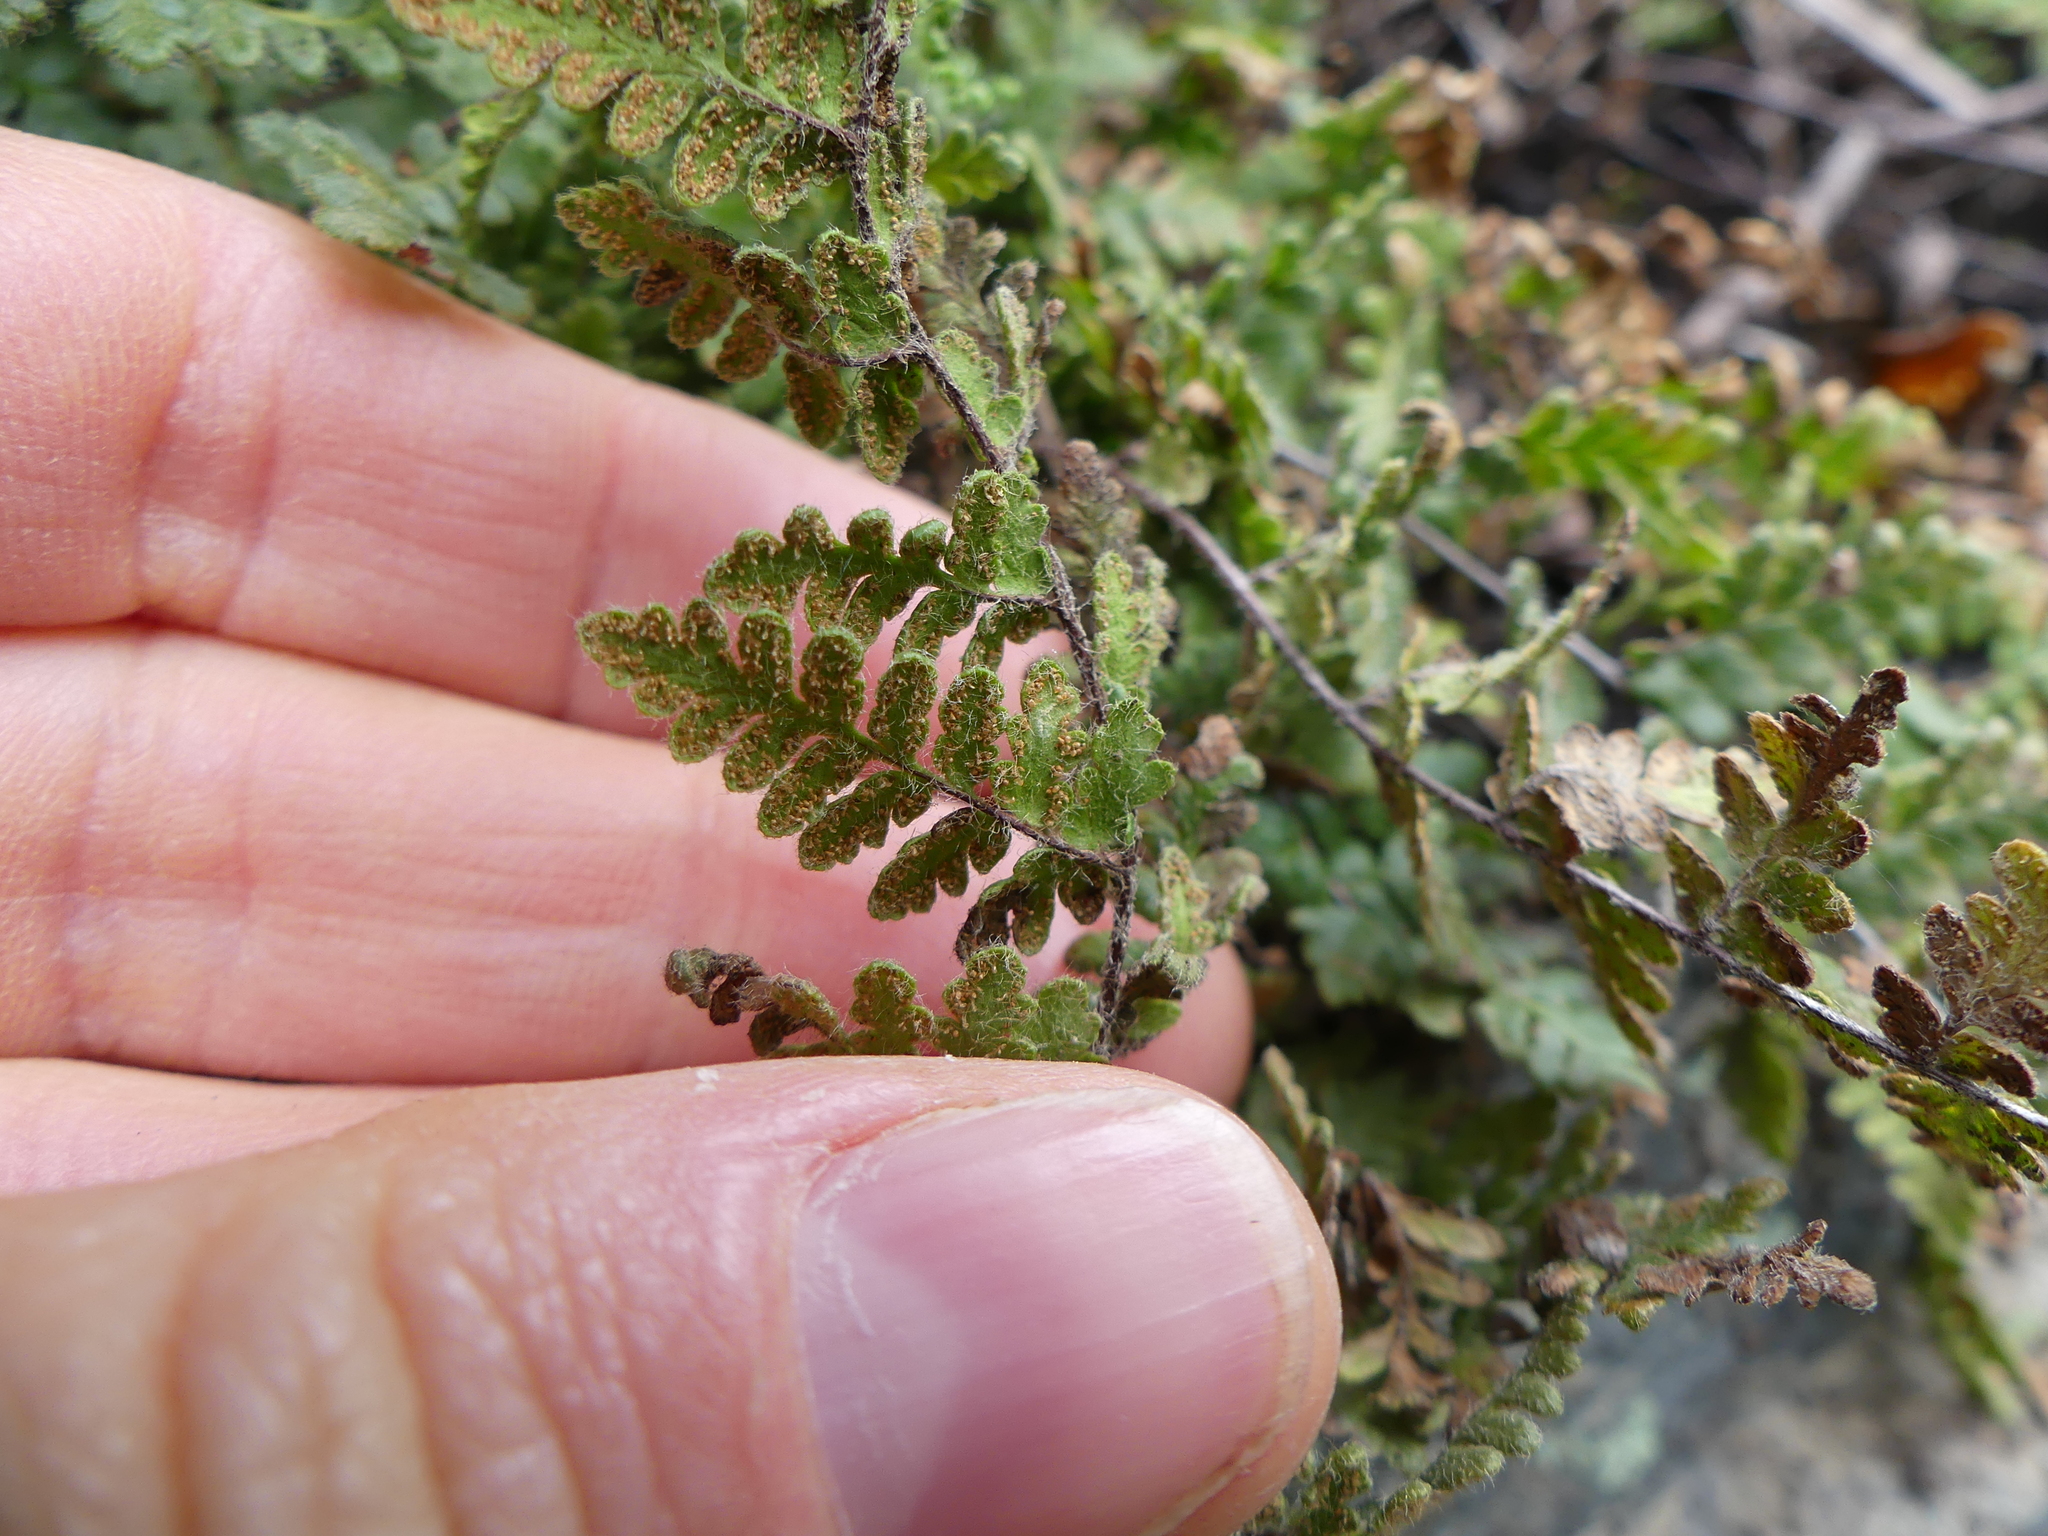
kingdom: Plantae
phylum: Tracheophyta
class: Polypodiopsida
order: Polypodiales
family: Pteridaceae
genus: Myriopteris
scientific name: Myriopteris lanosa
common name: Hairy lip fern
